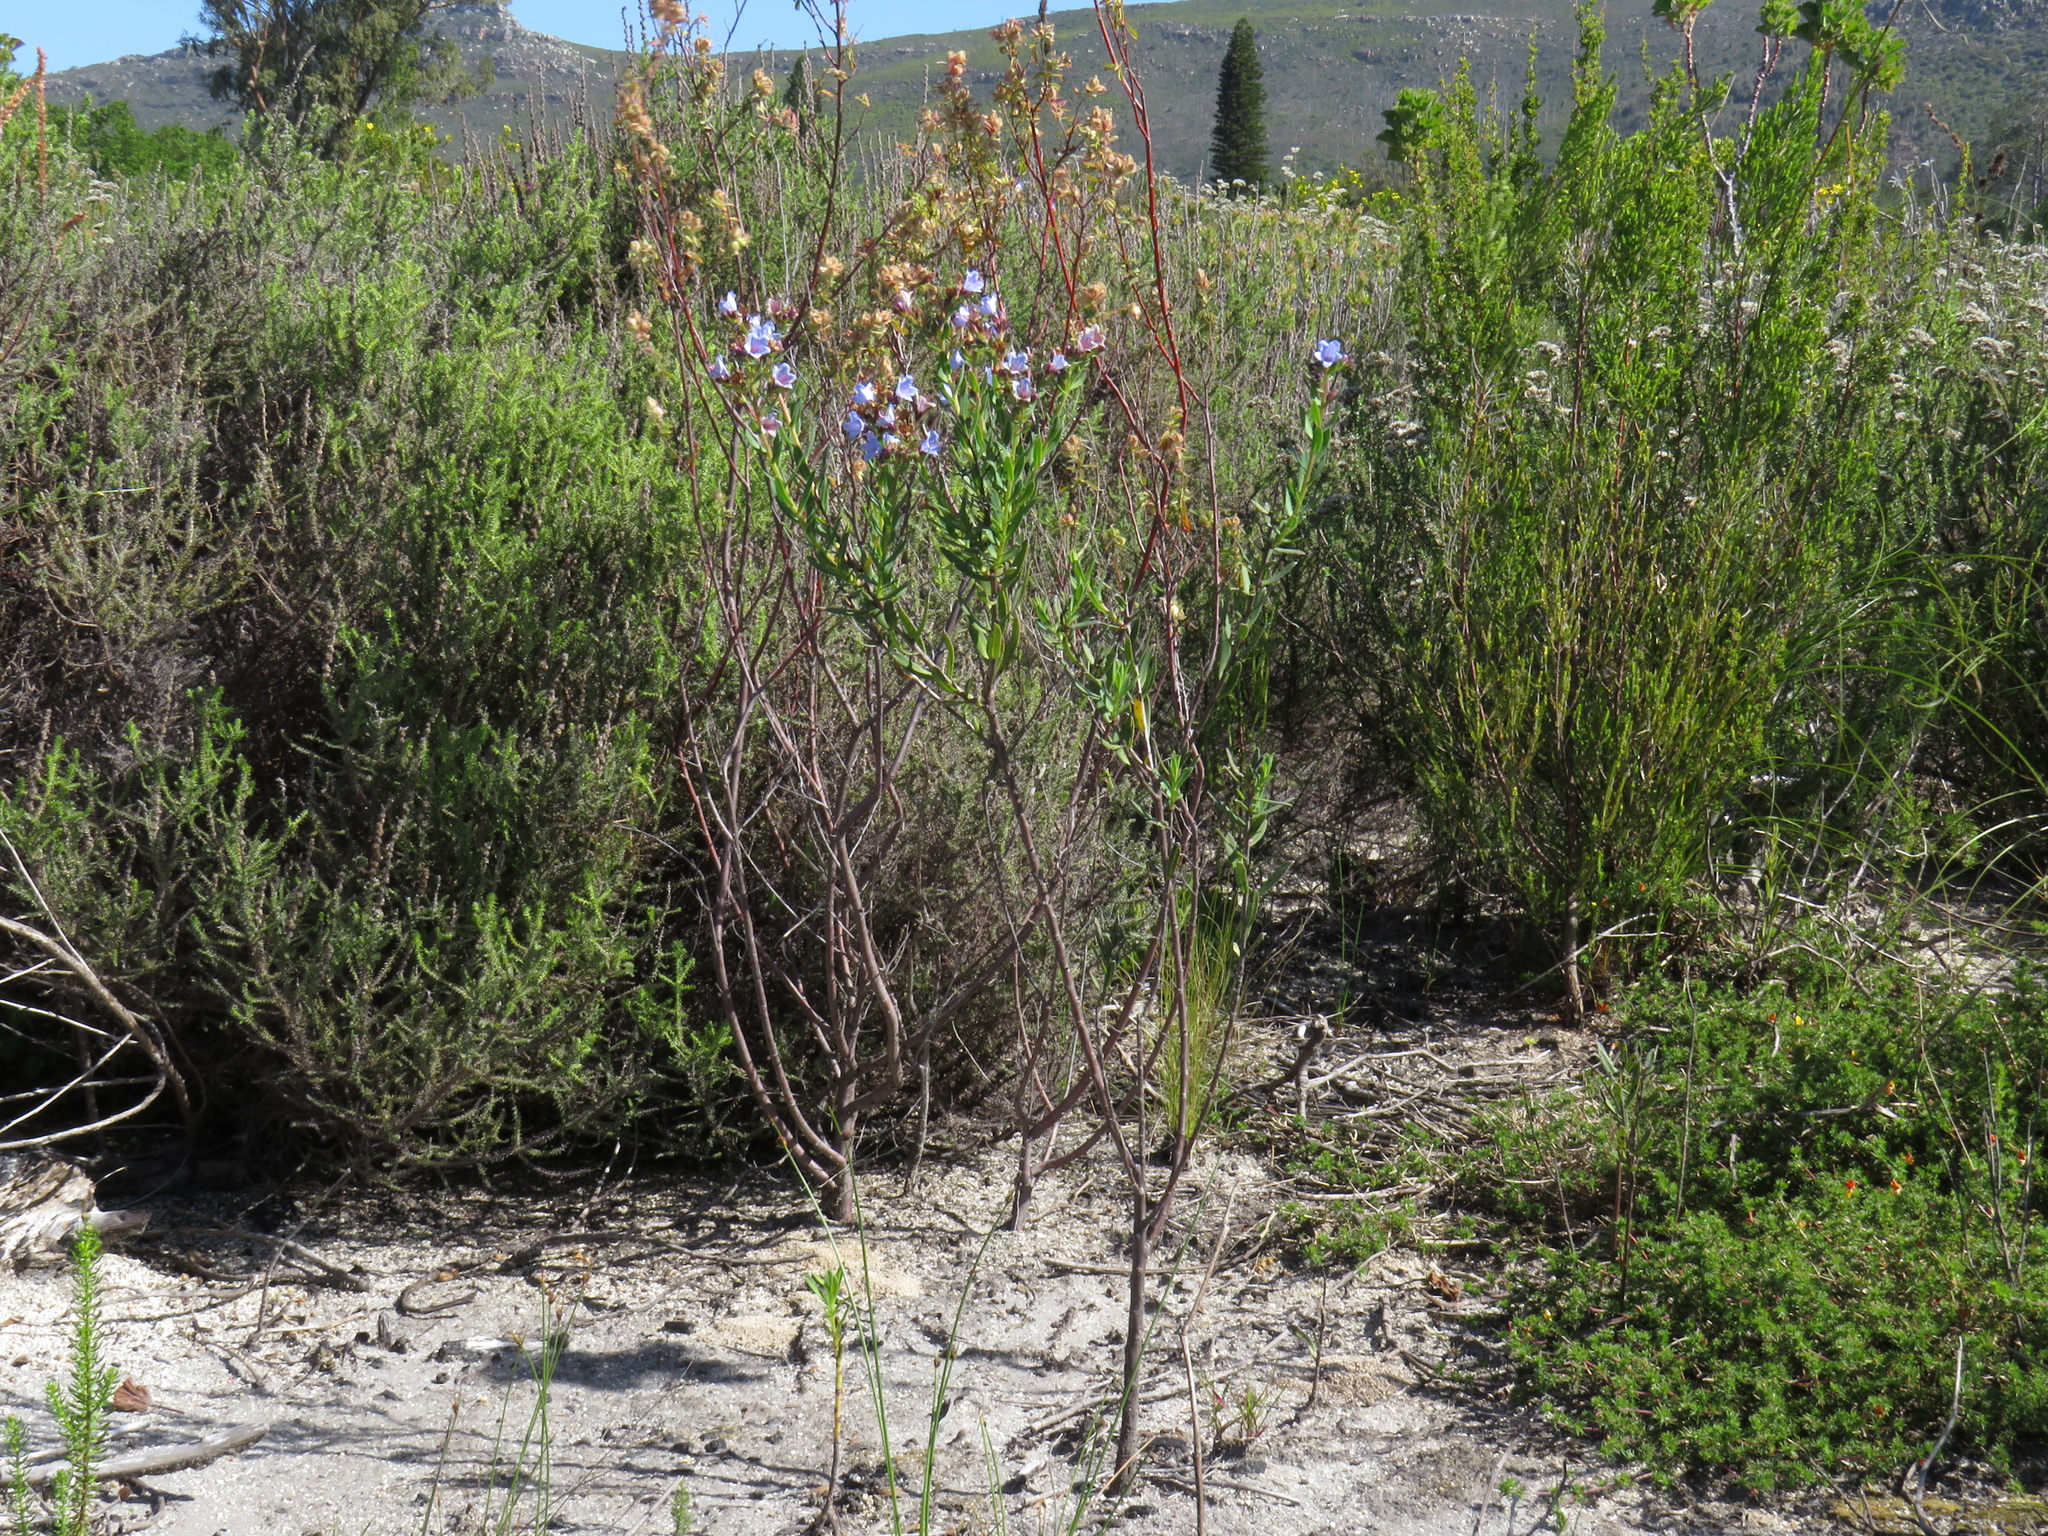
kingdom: Plantae
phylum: Tracheophyta
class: Magnoliopsida
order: Boraginales
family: Boraginaceae
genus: Lobostemon
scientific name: Lobostemon glaucophyllus
